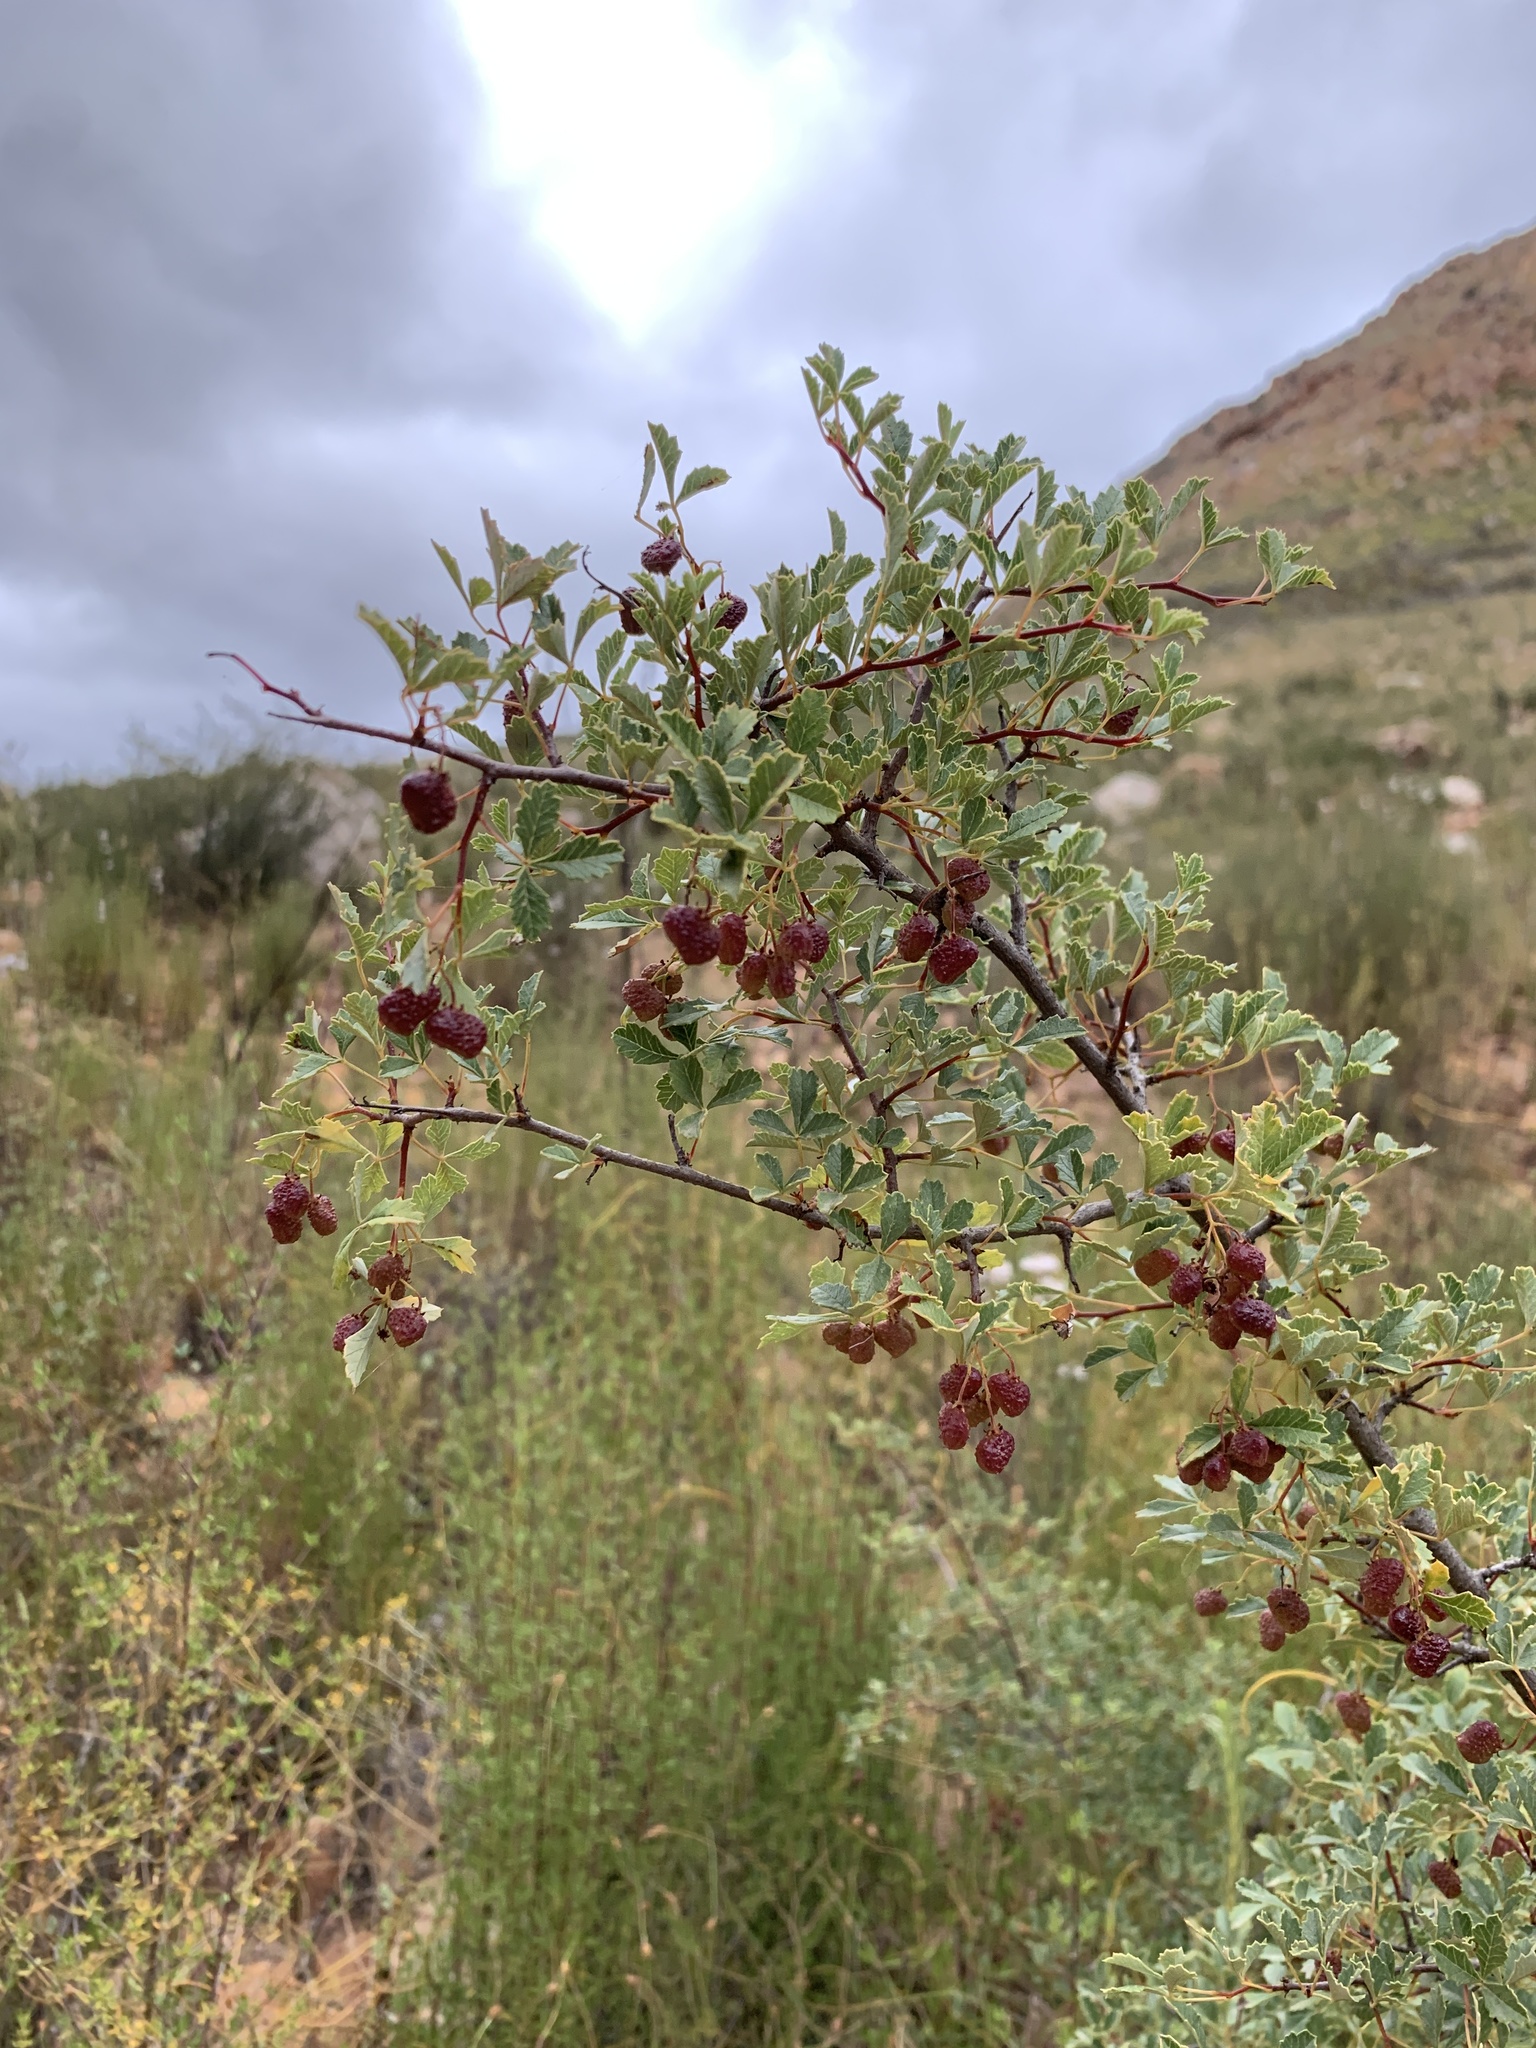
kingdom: Plantae
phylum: Tracheophyta
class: Magnoliopsida
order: Sapindales
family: Anacardiaceae
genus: Searsia
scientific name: Searsia dissecta
